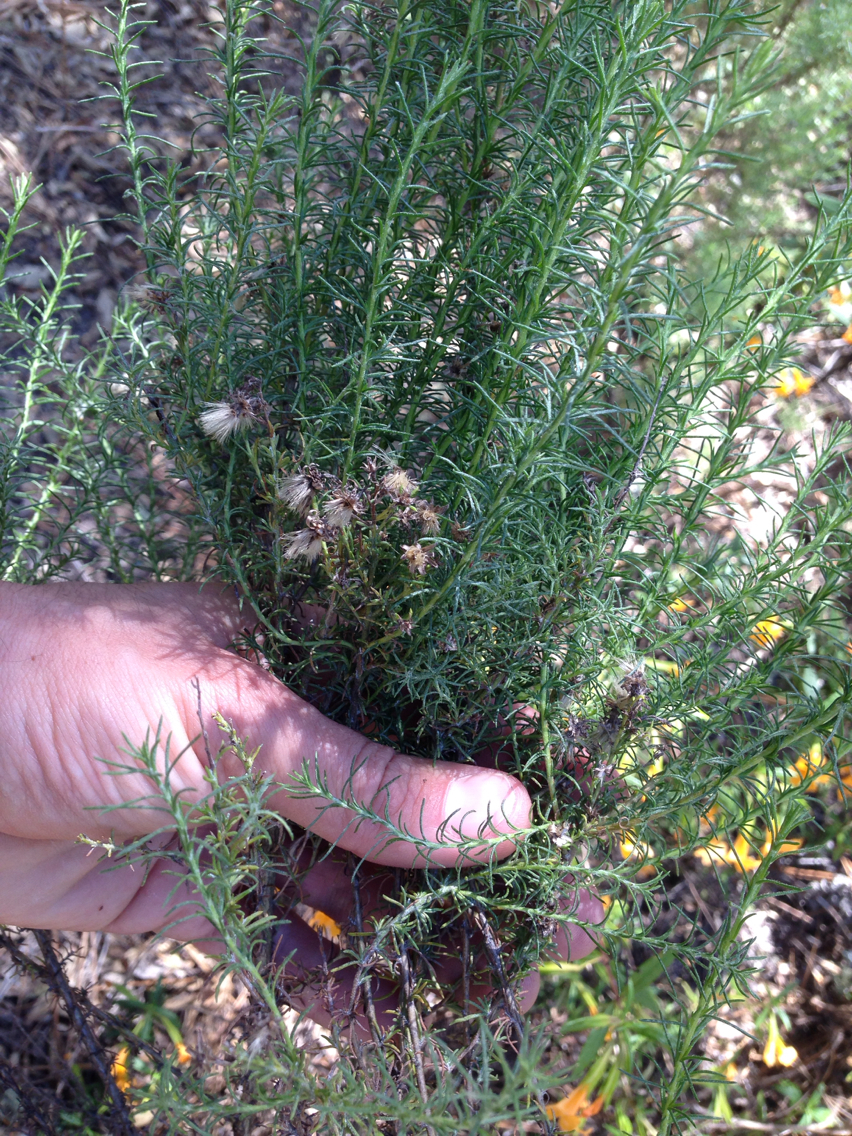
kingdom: Plantae
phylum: Tracheophyta
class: Magnoliopsida
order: Asterales
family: Asteraceae
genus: Ericameria
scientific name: Ericameria ericoides
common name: California goldenbush
